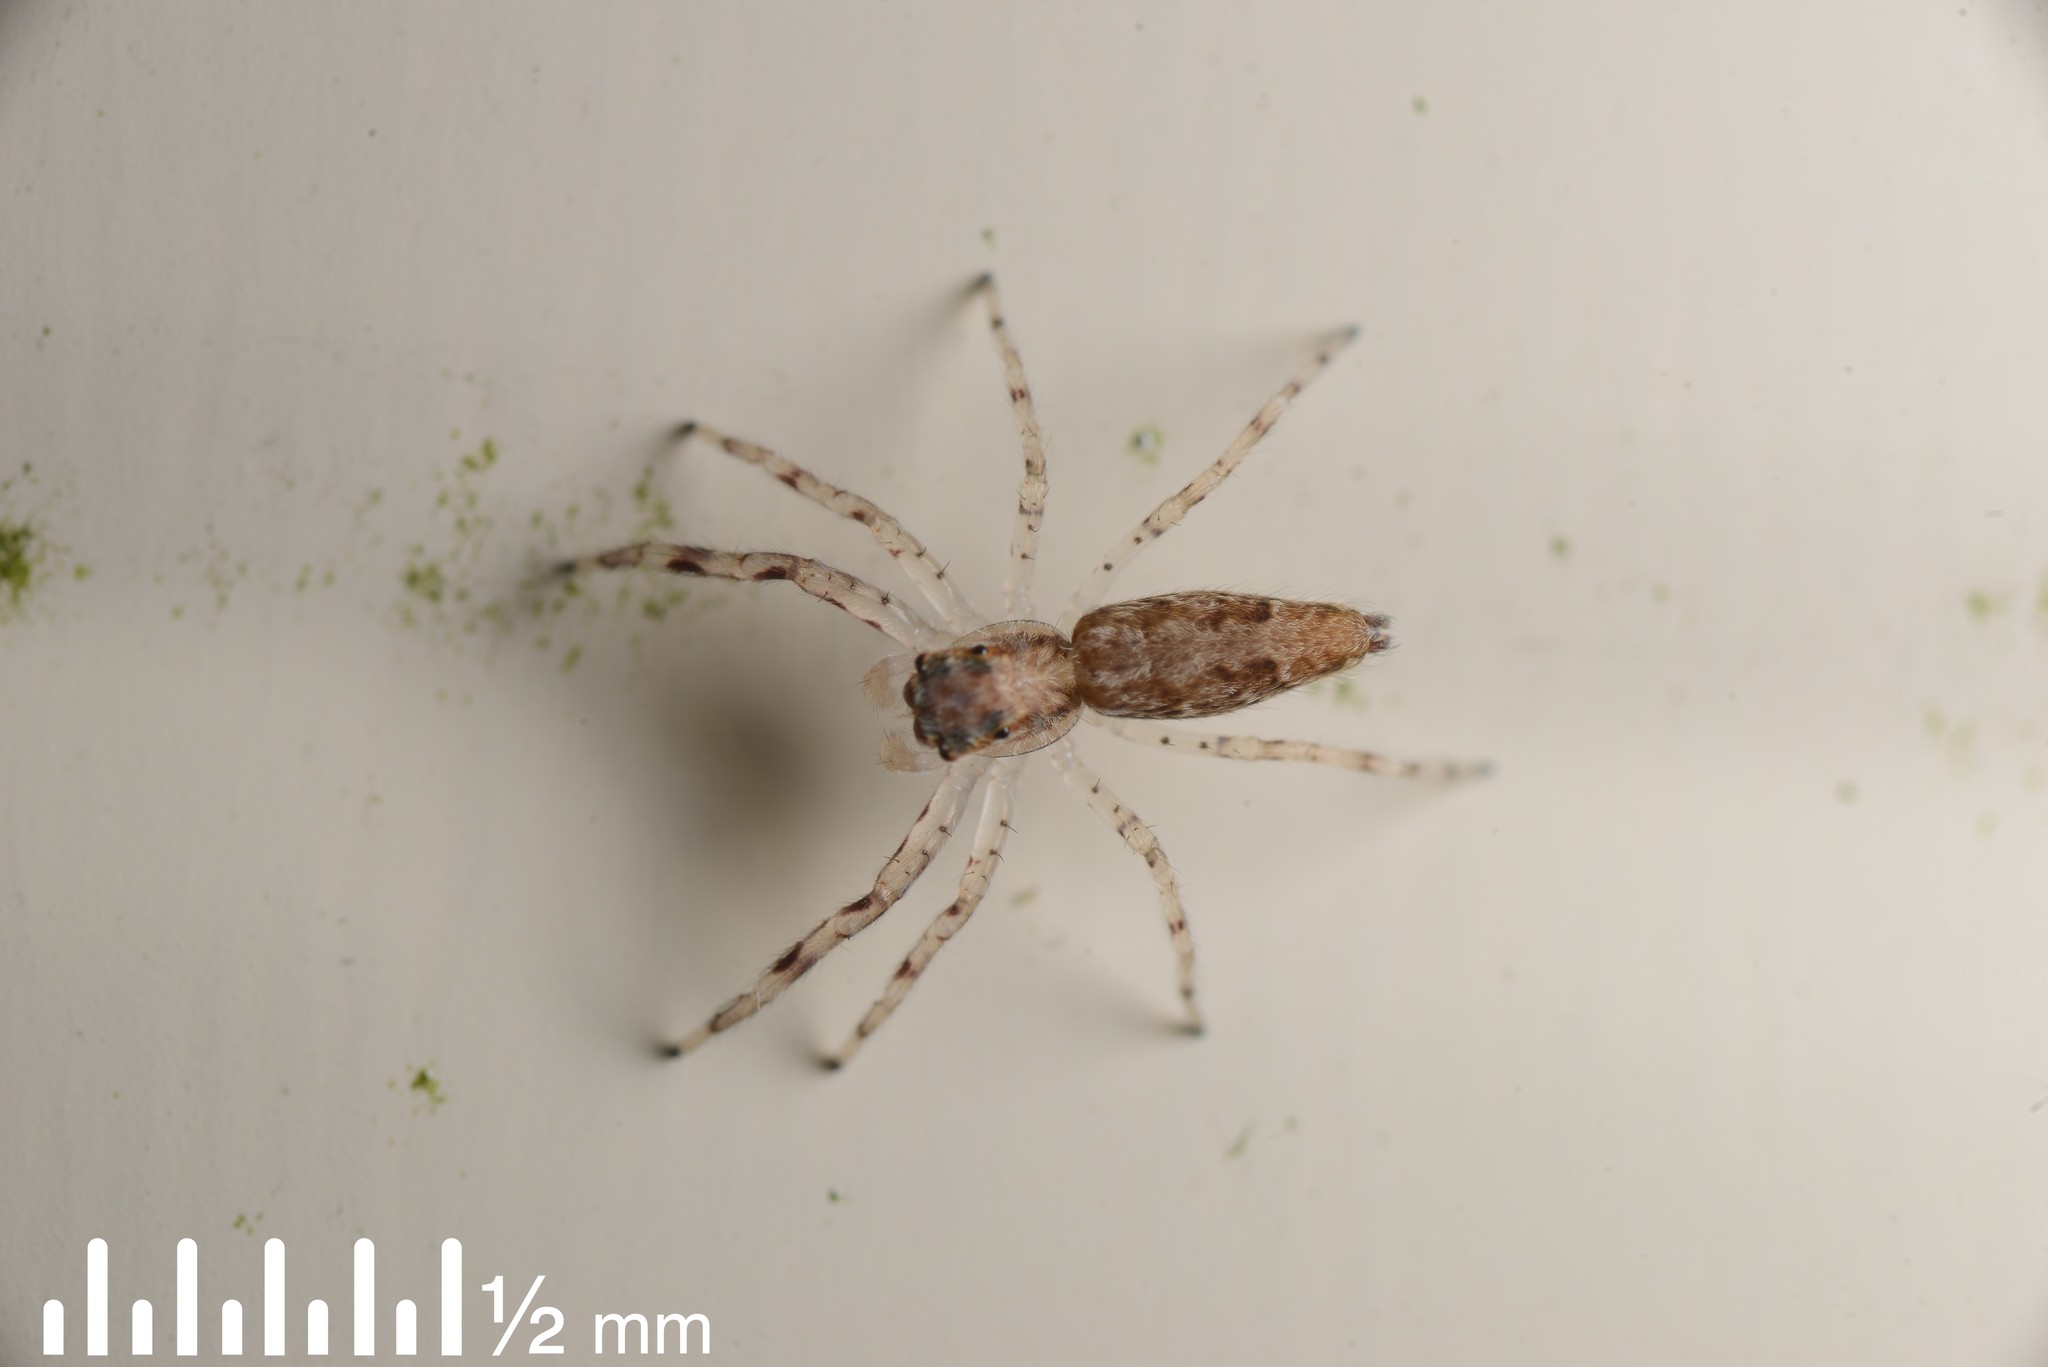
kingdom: Animalia
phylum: Arthropoda
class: Arachnida
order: Araneae
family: Salticidae
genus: Helpis
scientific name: Helpis minitabunda
